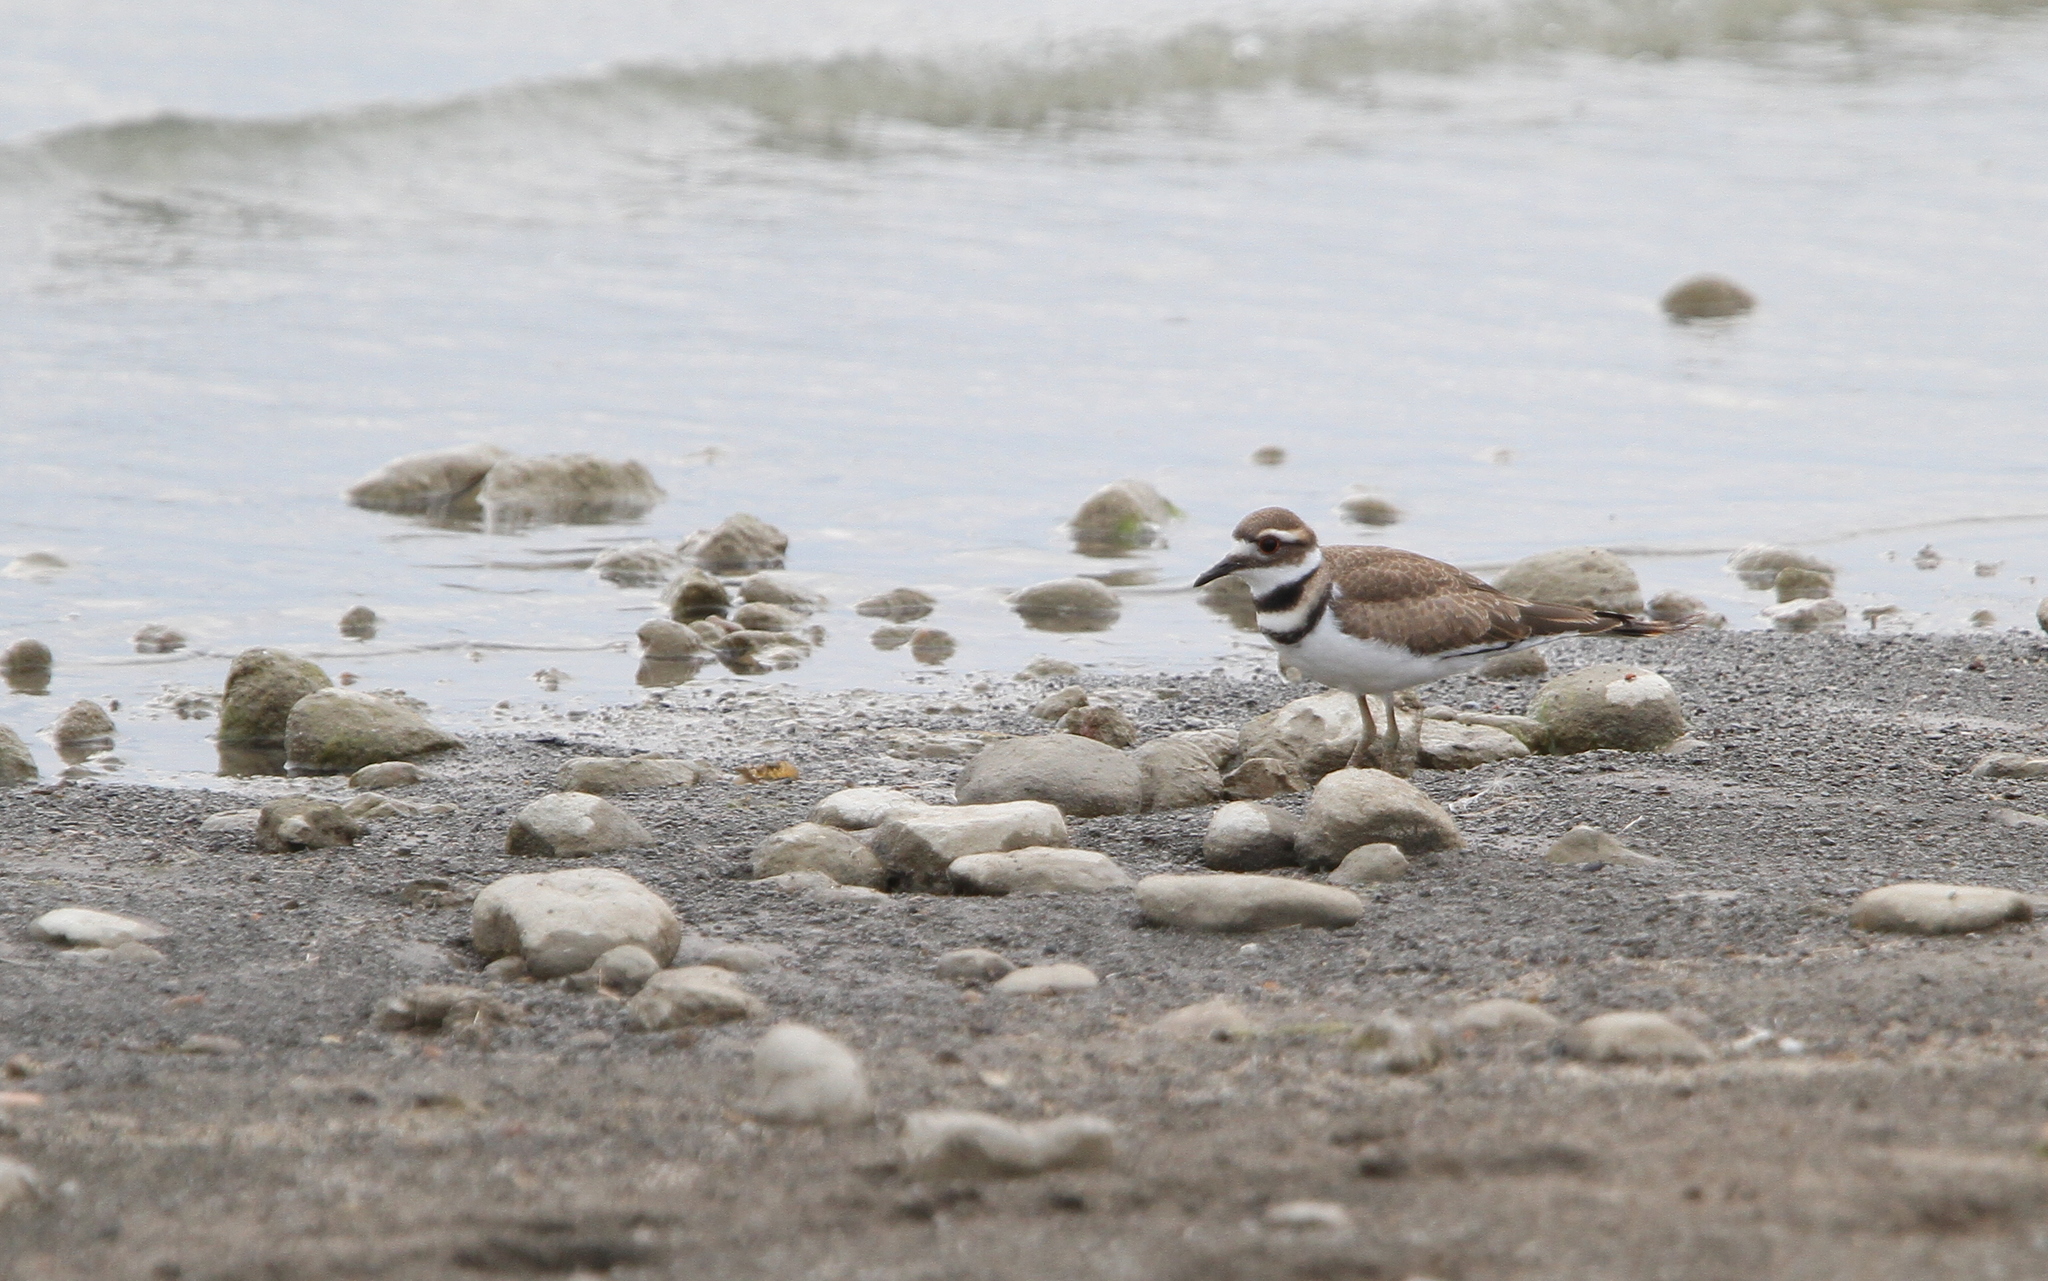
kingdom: Animalia
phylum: Chordata
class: Aves
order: Charadriiformes
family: Charadriidae
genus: Charadrius
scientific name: Charadrius vociferus
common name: Killdeer
